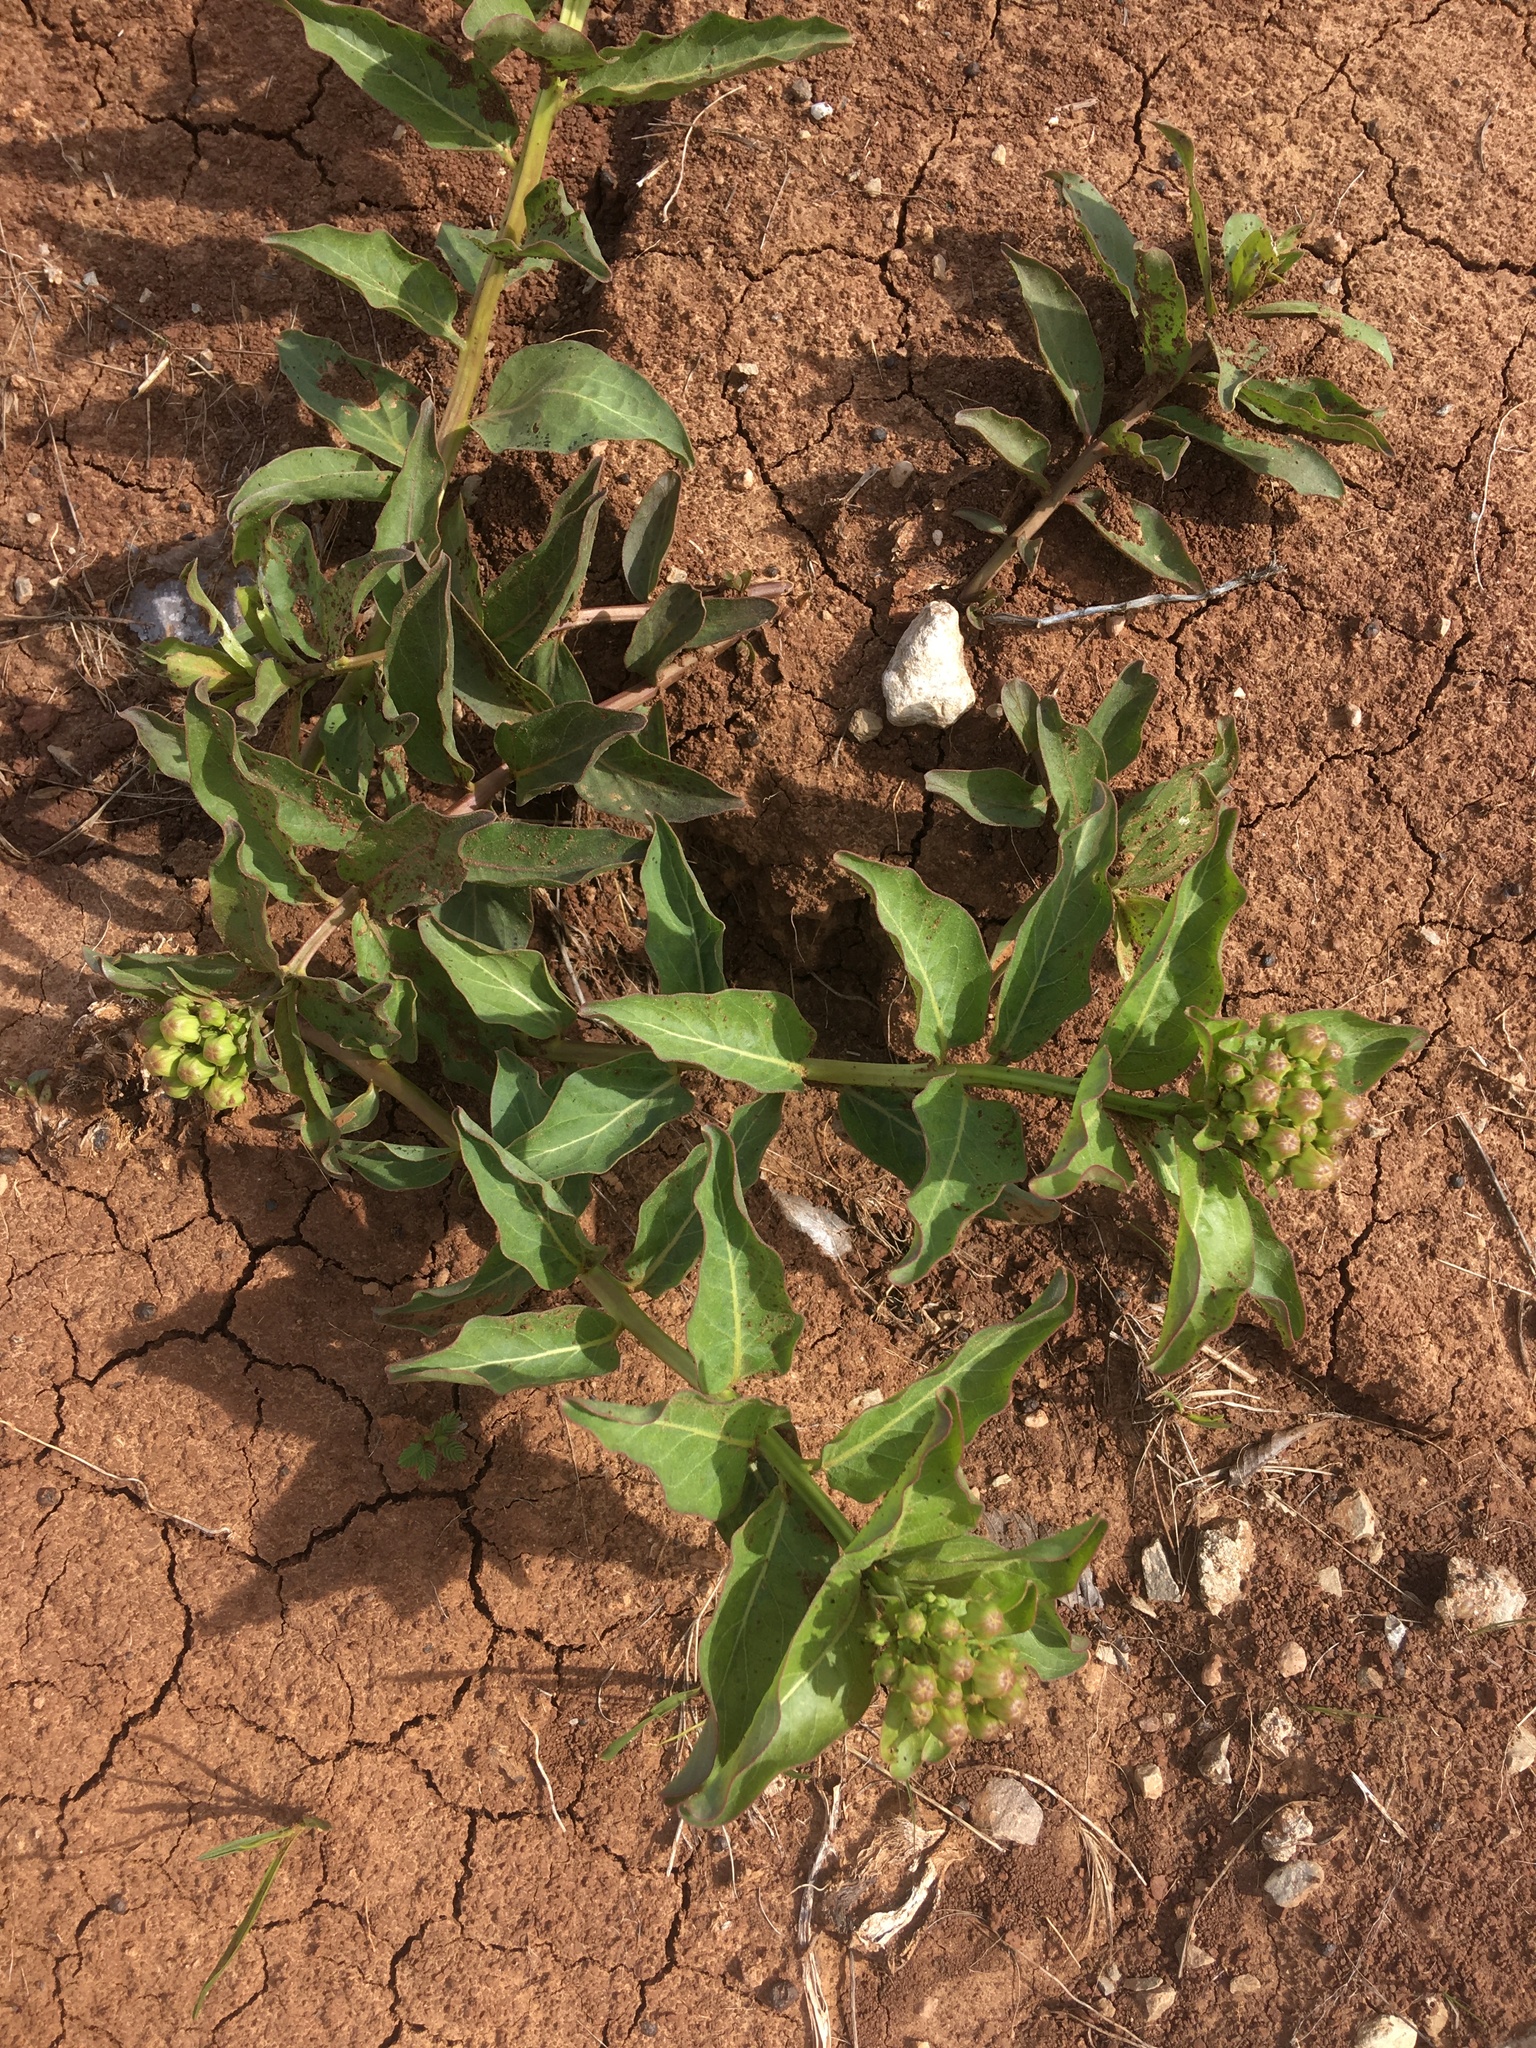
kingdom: Plantae
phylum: Tracheophyta
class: Magnoliopsida
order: Gentianales
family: Apocynaceae
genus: Asclepias
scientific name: Asclepias viridis
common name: Antelope-horns
